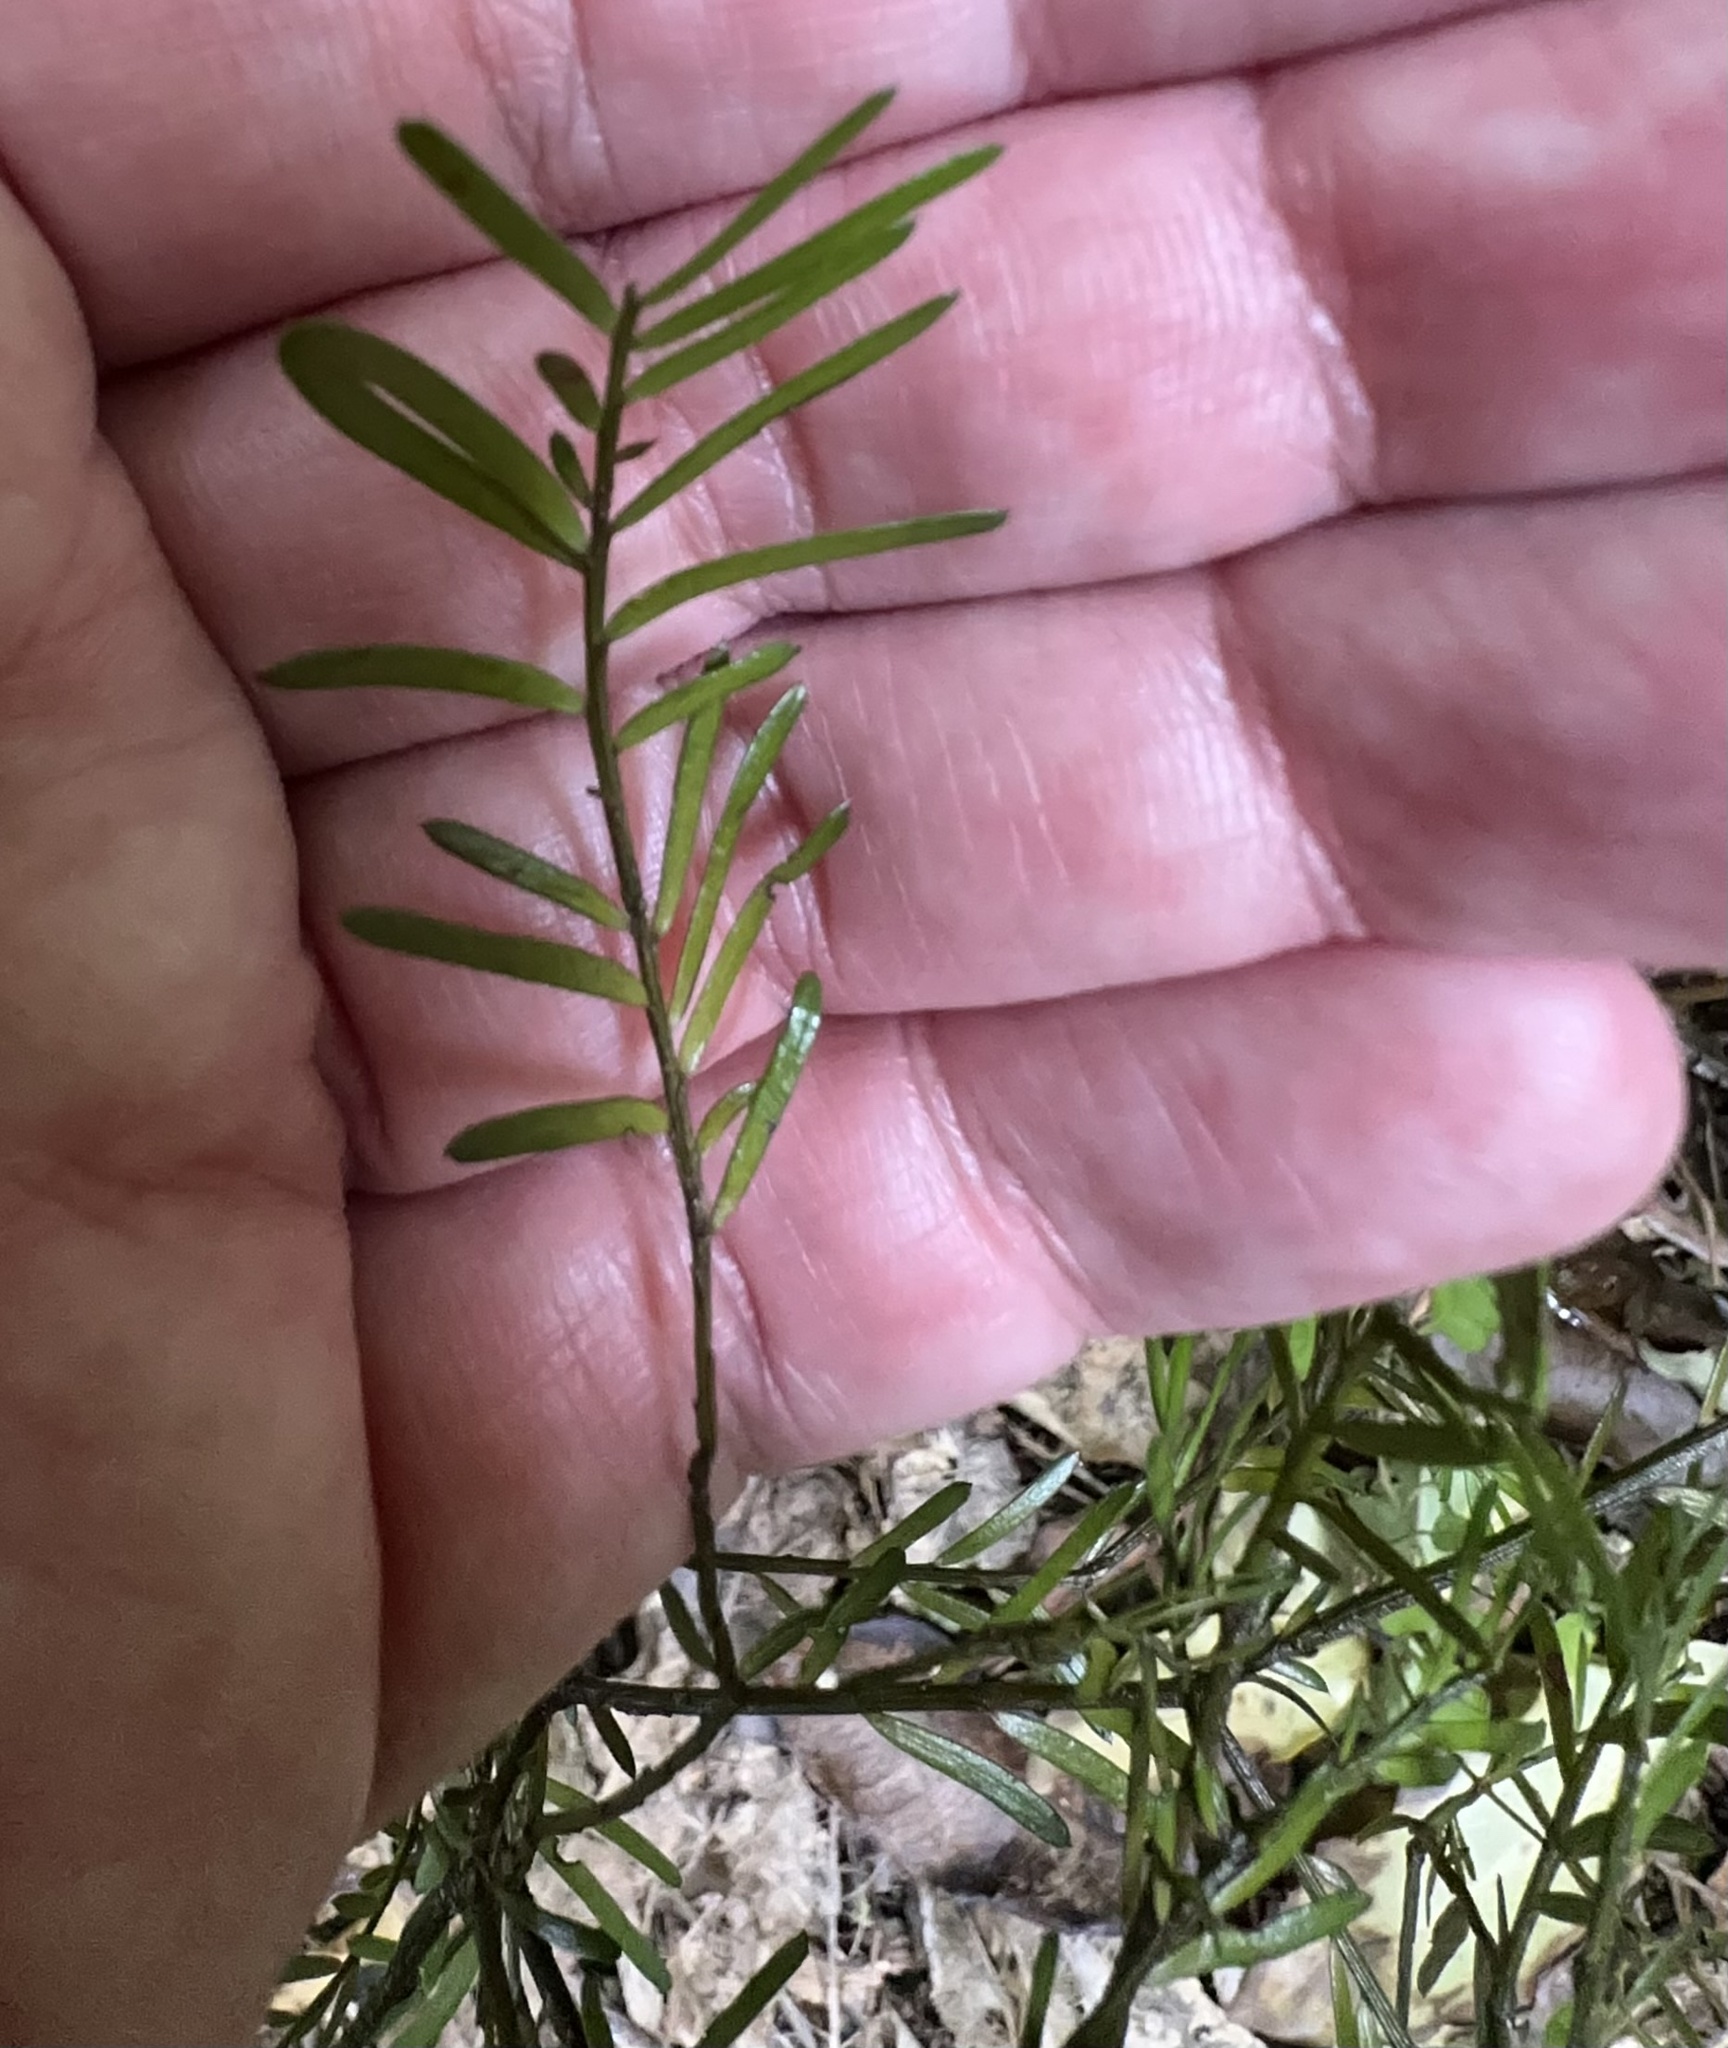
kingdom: Plantae
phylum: Tracheophyta
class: Pinopsida
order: Pinales
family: Podocarpaceae
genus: Prumnopitys
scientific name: Prumnopitys taxifolia
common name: Matai
